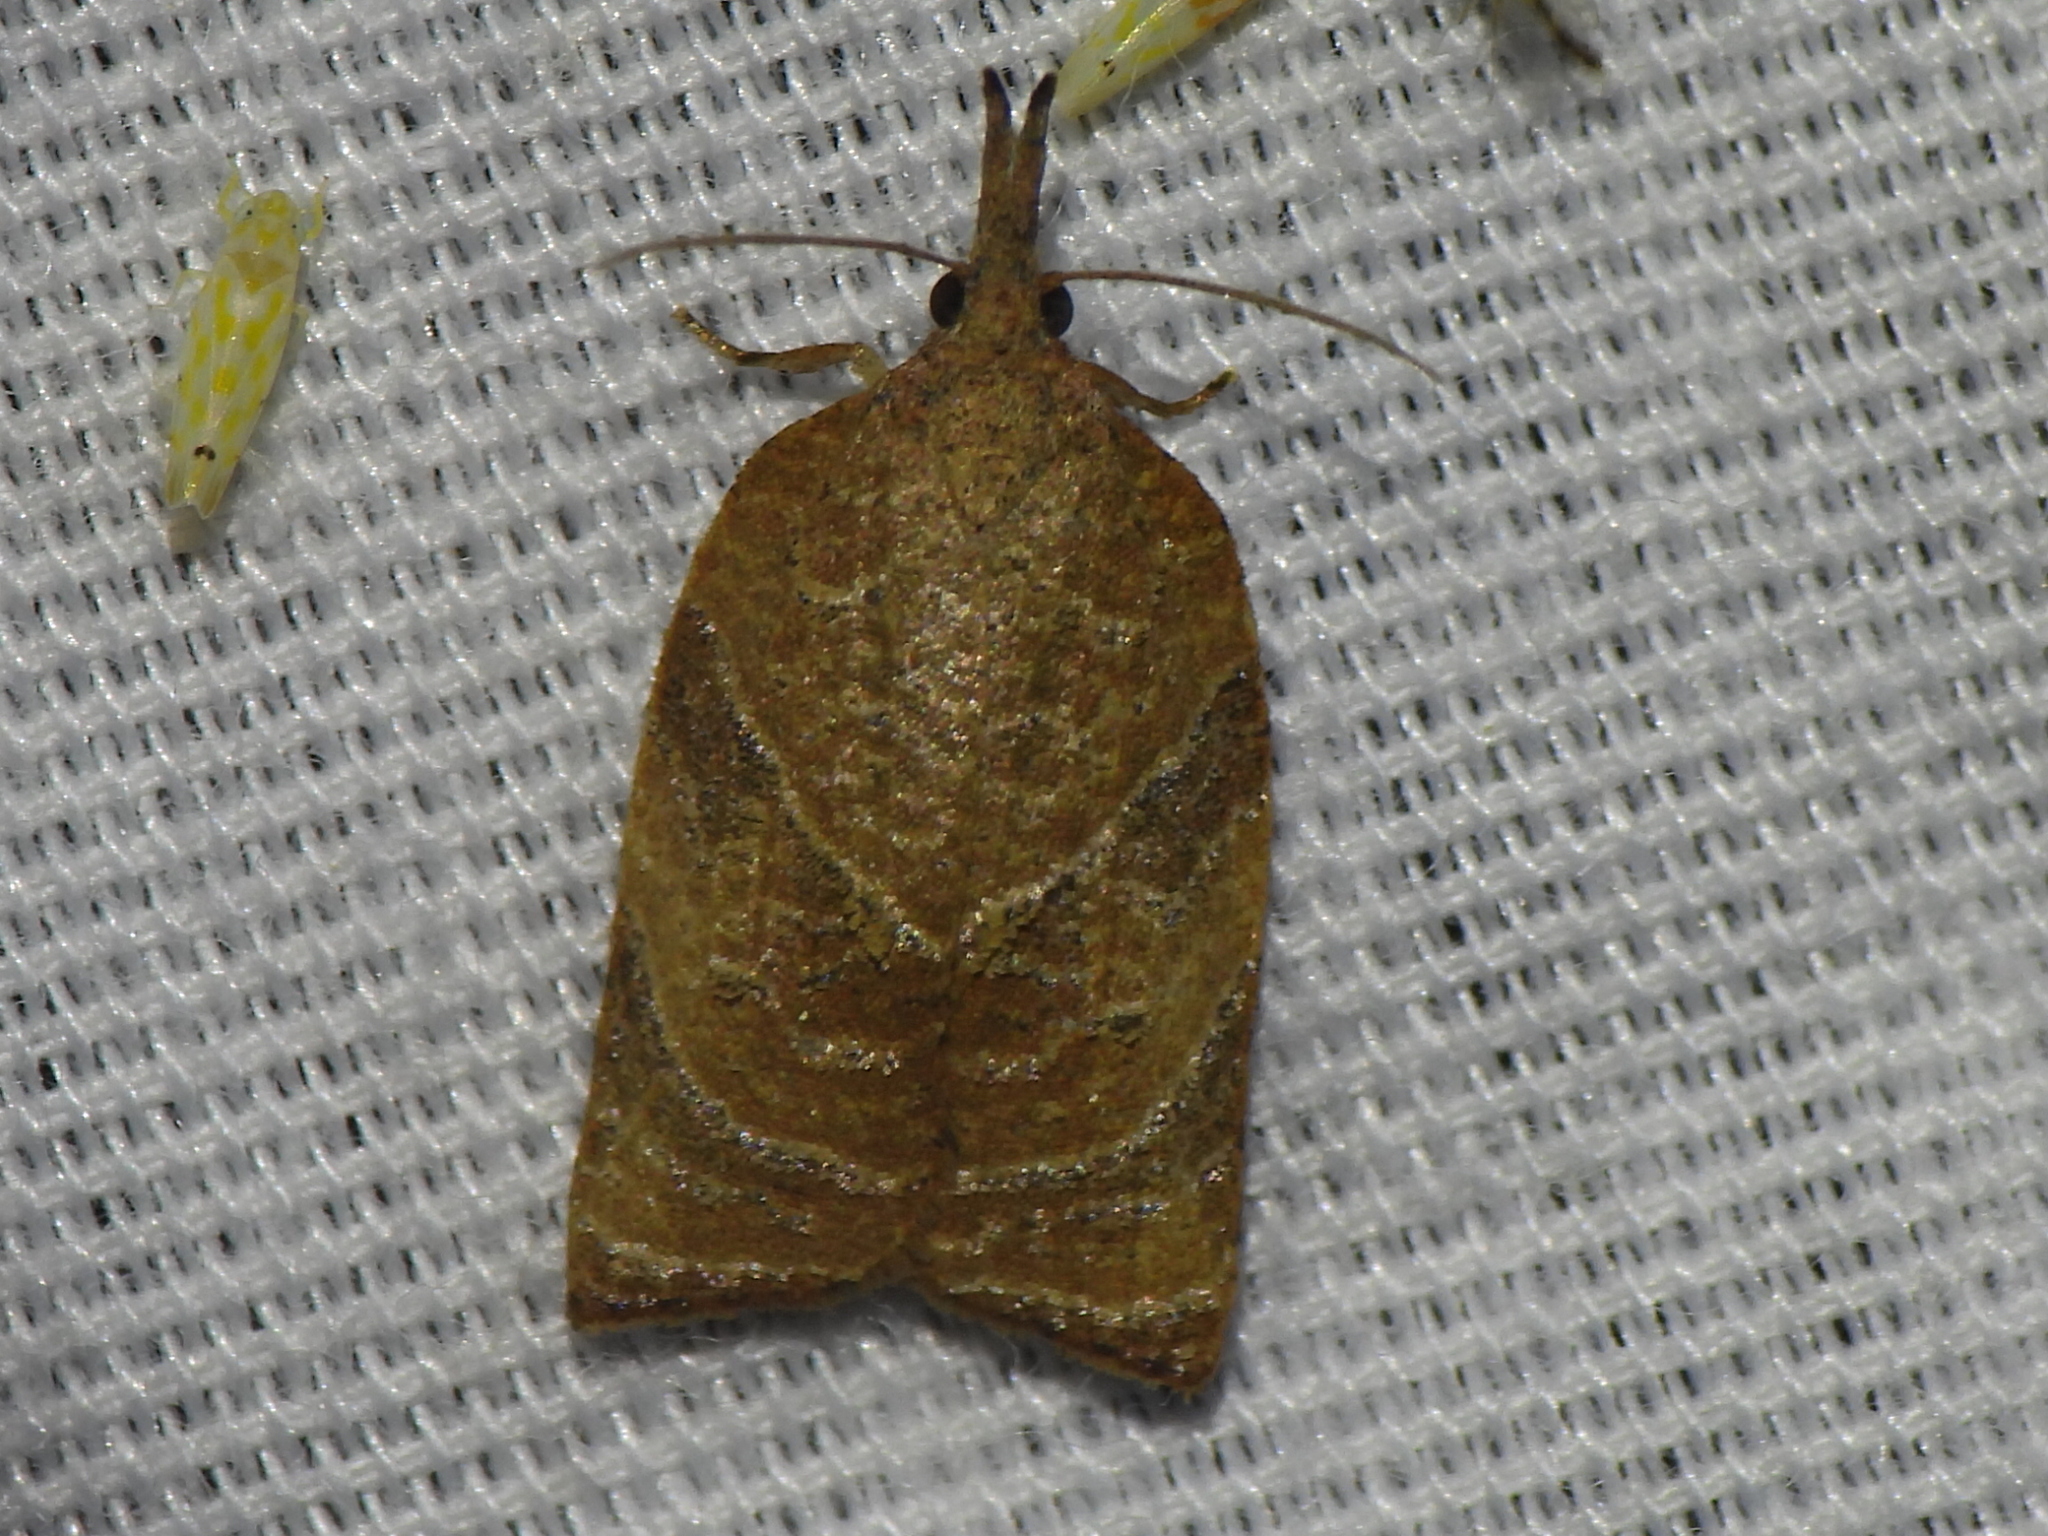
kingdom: Animalia
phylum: Arthropoda
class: Insecta
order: Lepidoptera
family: Tortricidae
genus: Platynota
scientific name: Platynota rostrana
